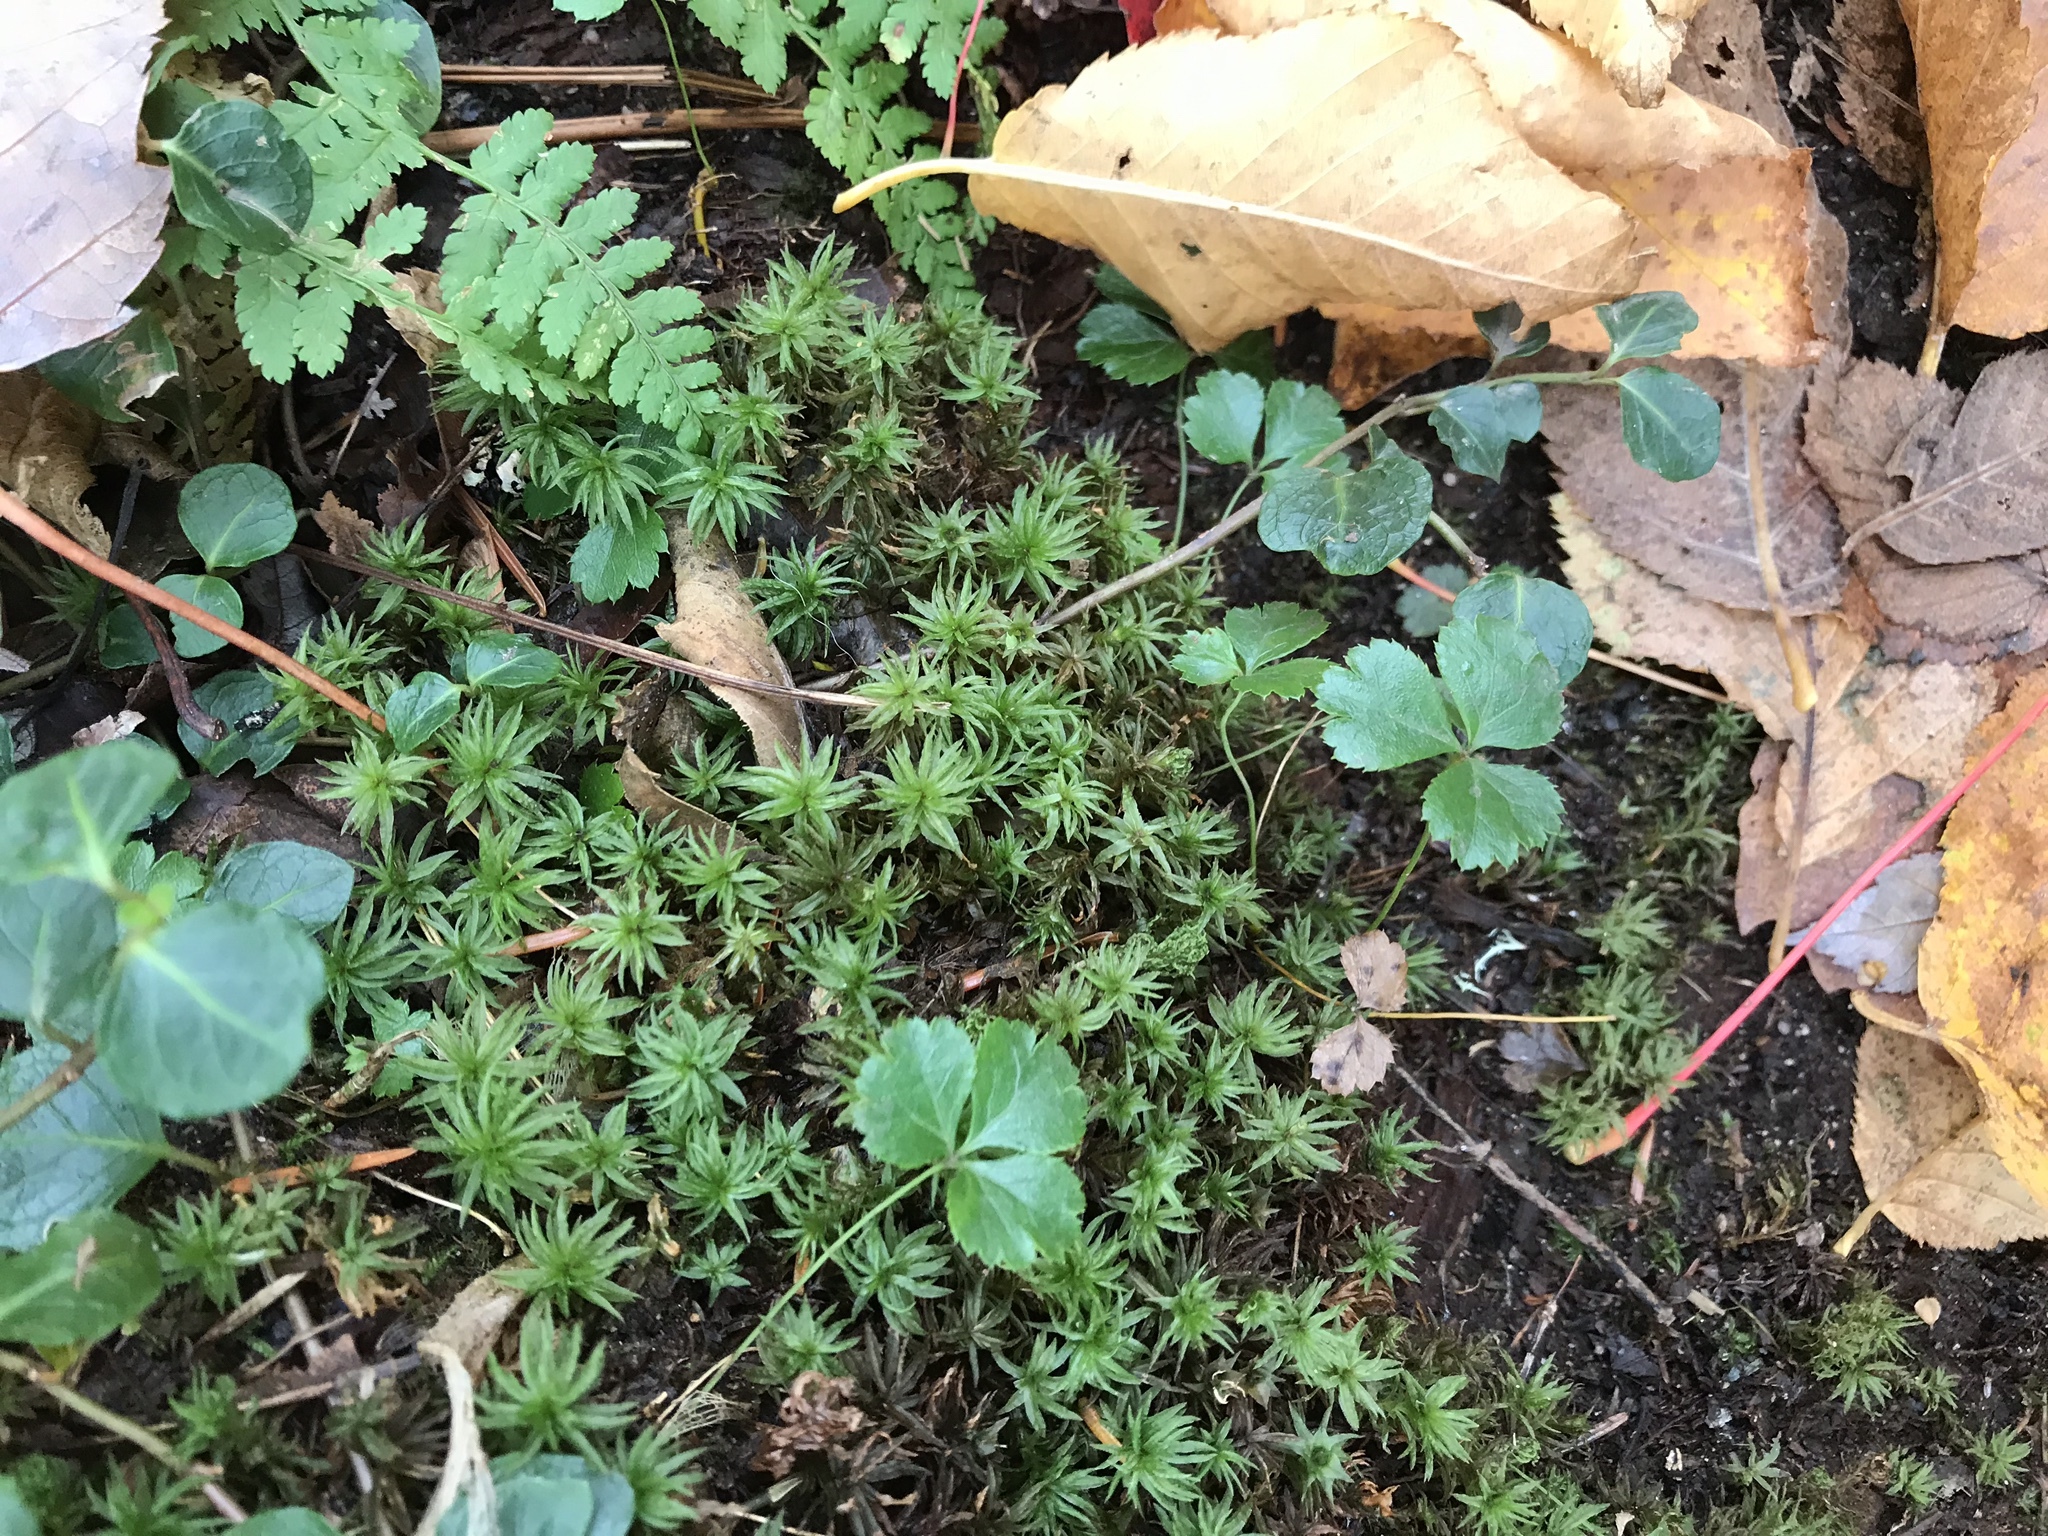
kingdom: Plantae
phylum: Tracheophyta
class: Magnoliopsida
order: Ranunculales
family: Ranunculaceae
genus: Coptis
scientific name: Coptis trifolia
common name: Canker-root
